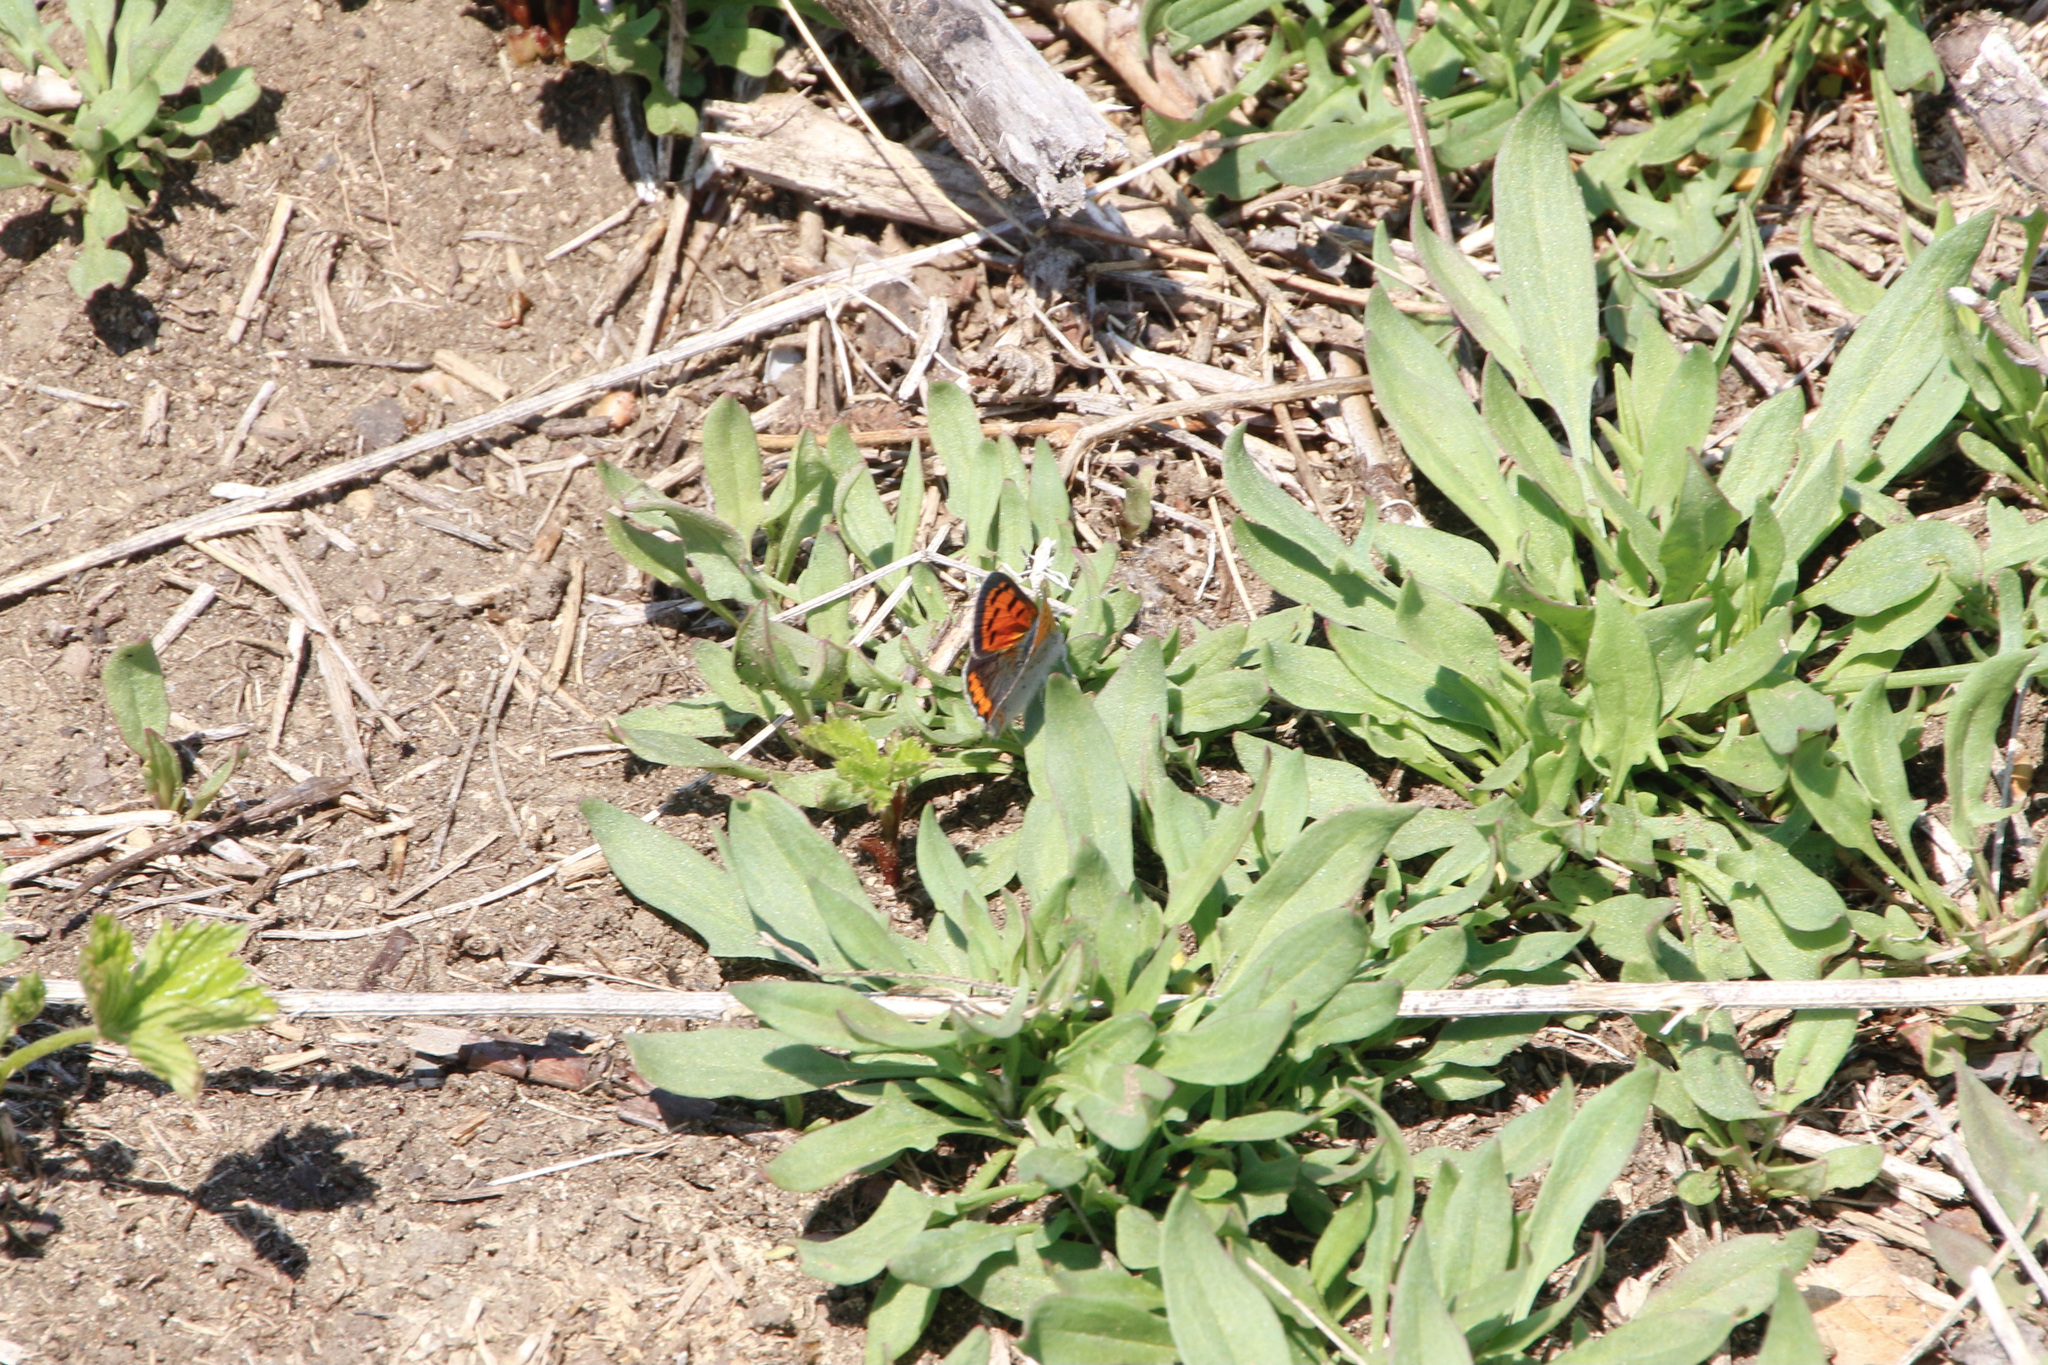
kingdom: Animalia
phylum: Arthropoda
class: Insecta
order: Lepidoptera
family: Lycaenidae
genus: Lycaena
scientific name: Lycaena hypophlaeas
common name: American copper
